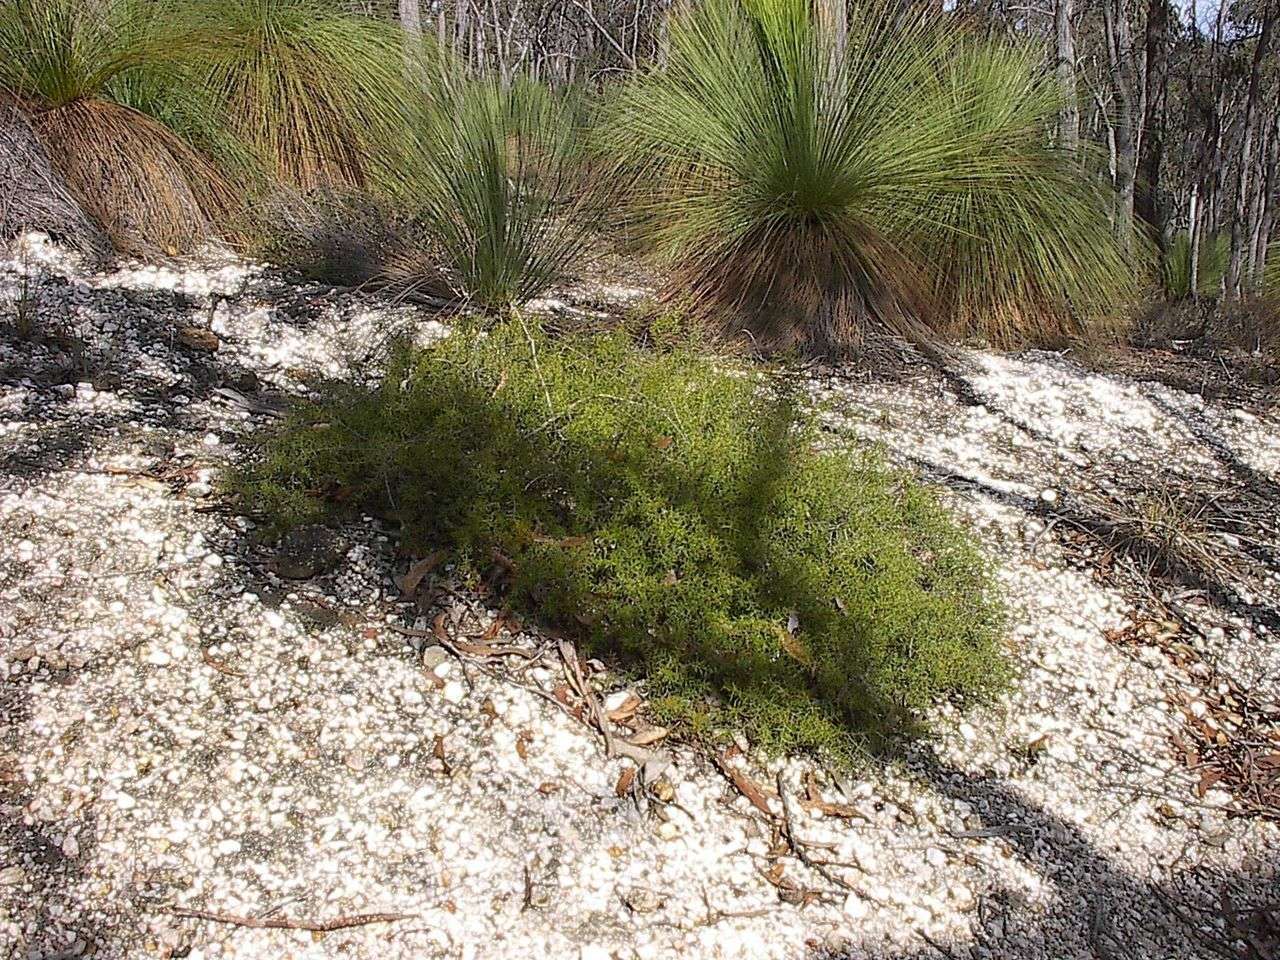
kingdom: Plantae
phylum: Tracheophyta
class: Magnoliopsida
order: Fabales
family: Fabaceae
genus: Acacia
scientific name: Acacia brownii
